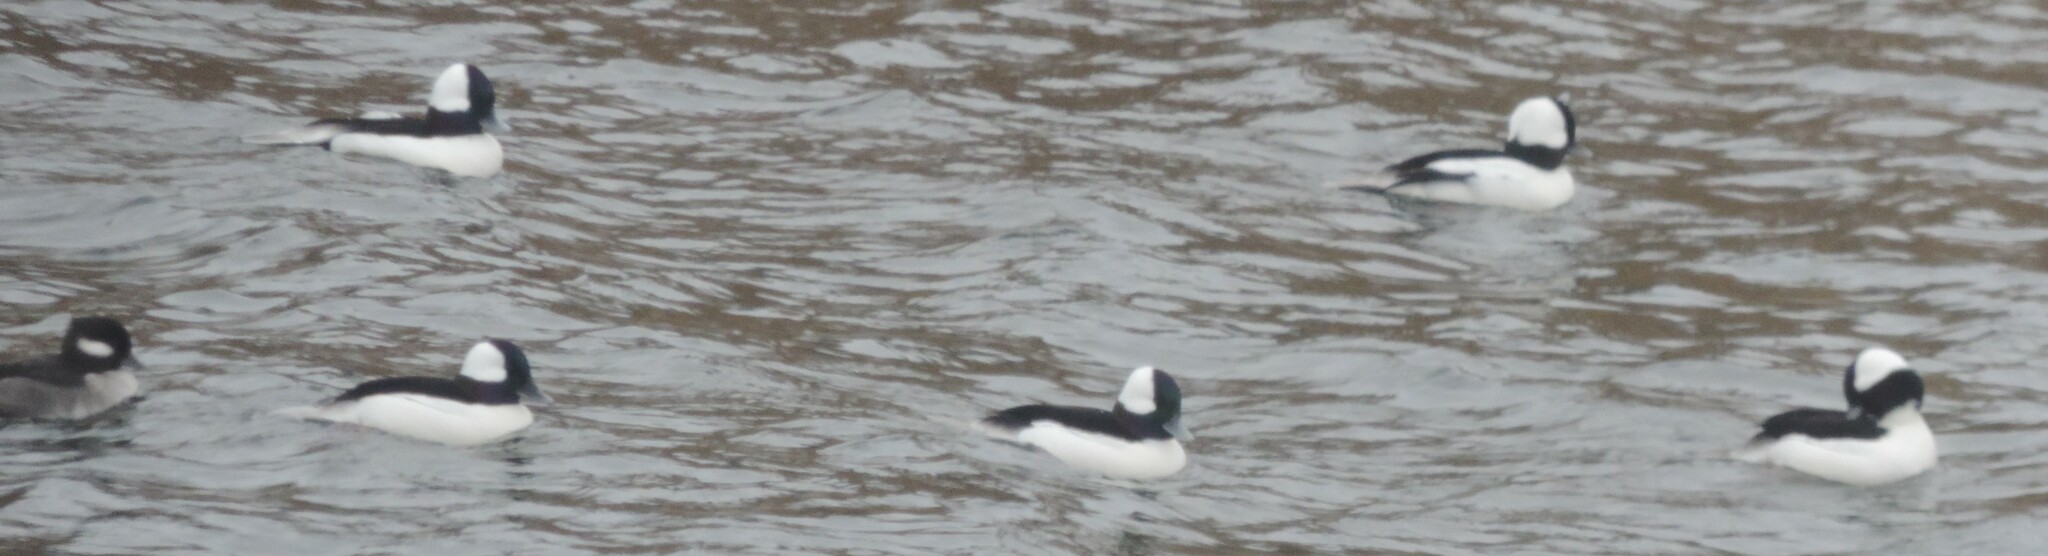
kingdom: Animalia
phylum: Chordata
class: Aves
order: Anseriformes
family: Anatidae
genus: Bucephala
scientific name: Bucephala albeola
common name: Bufflehead
